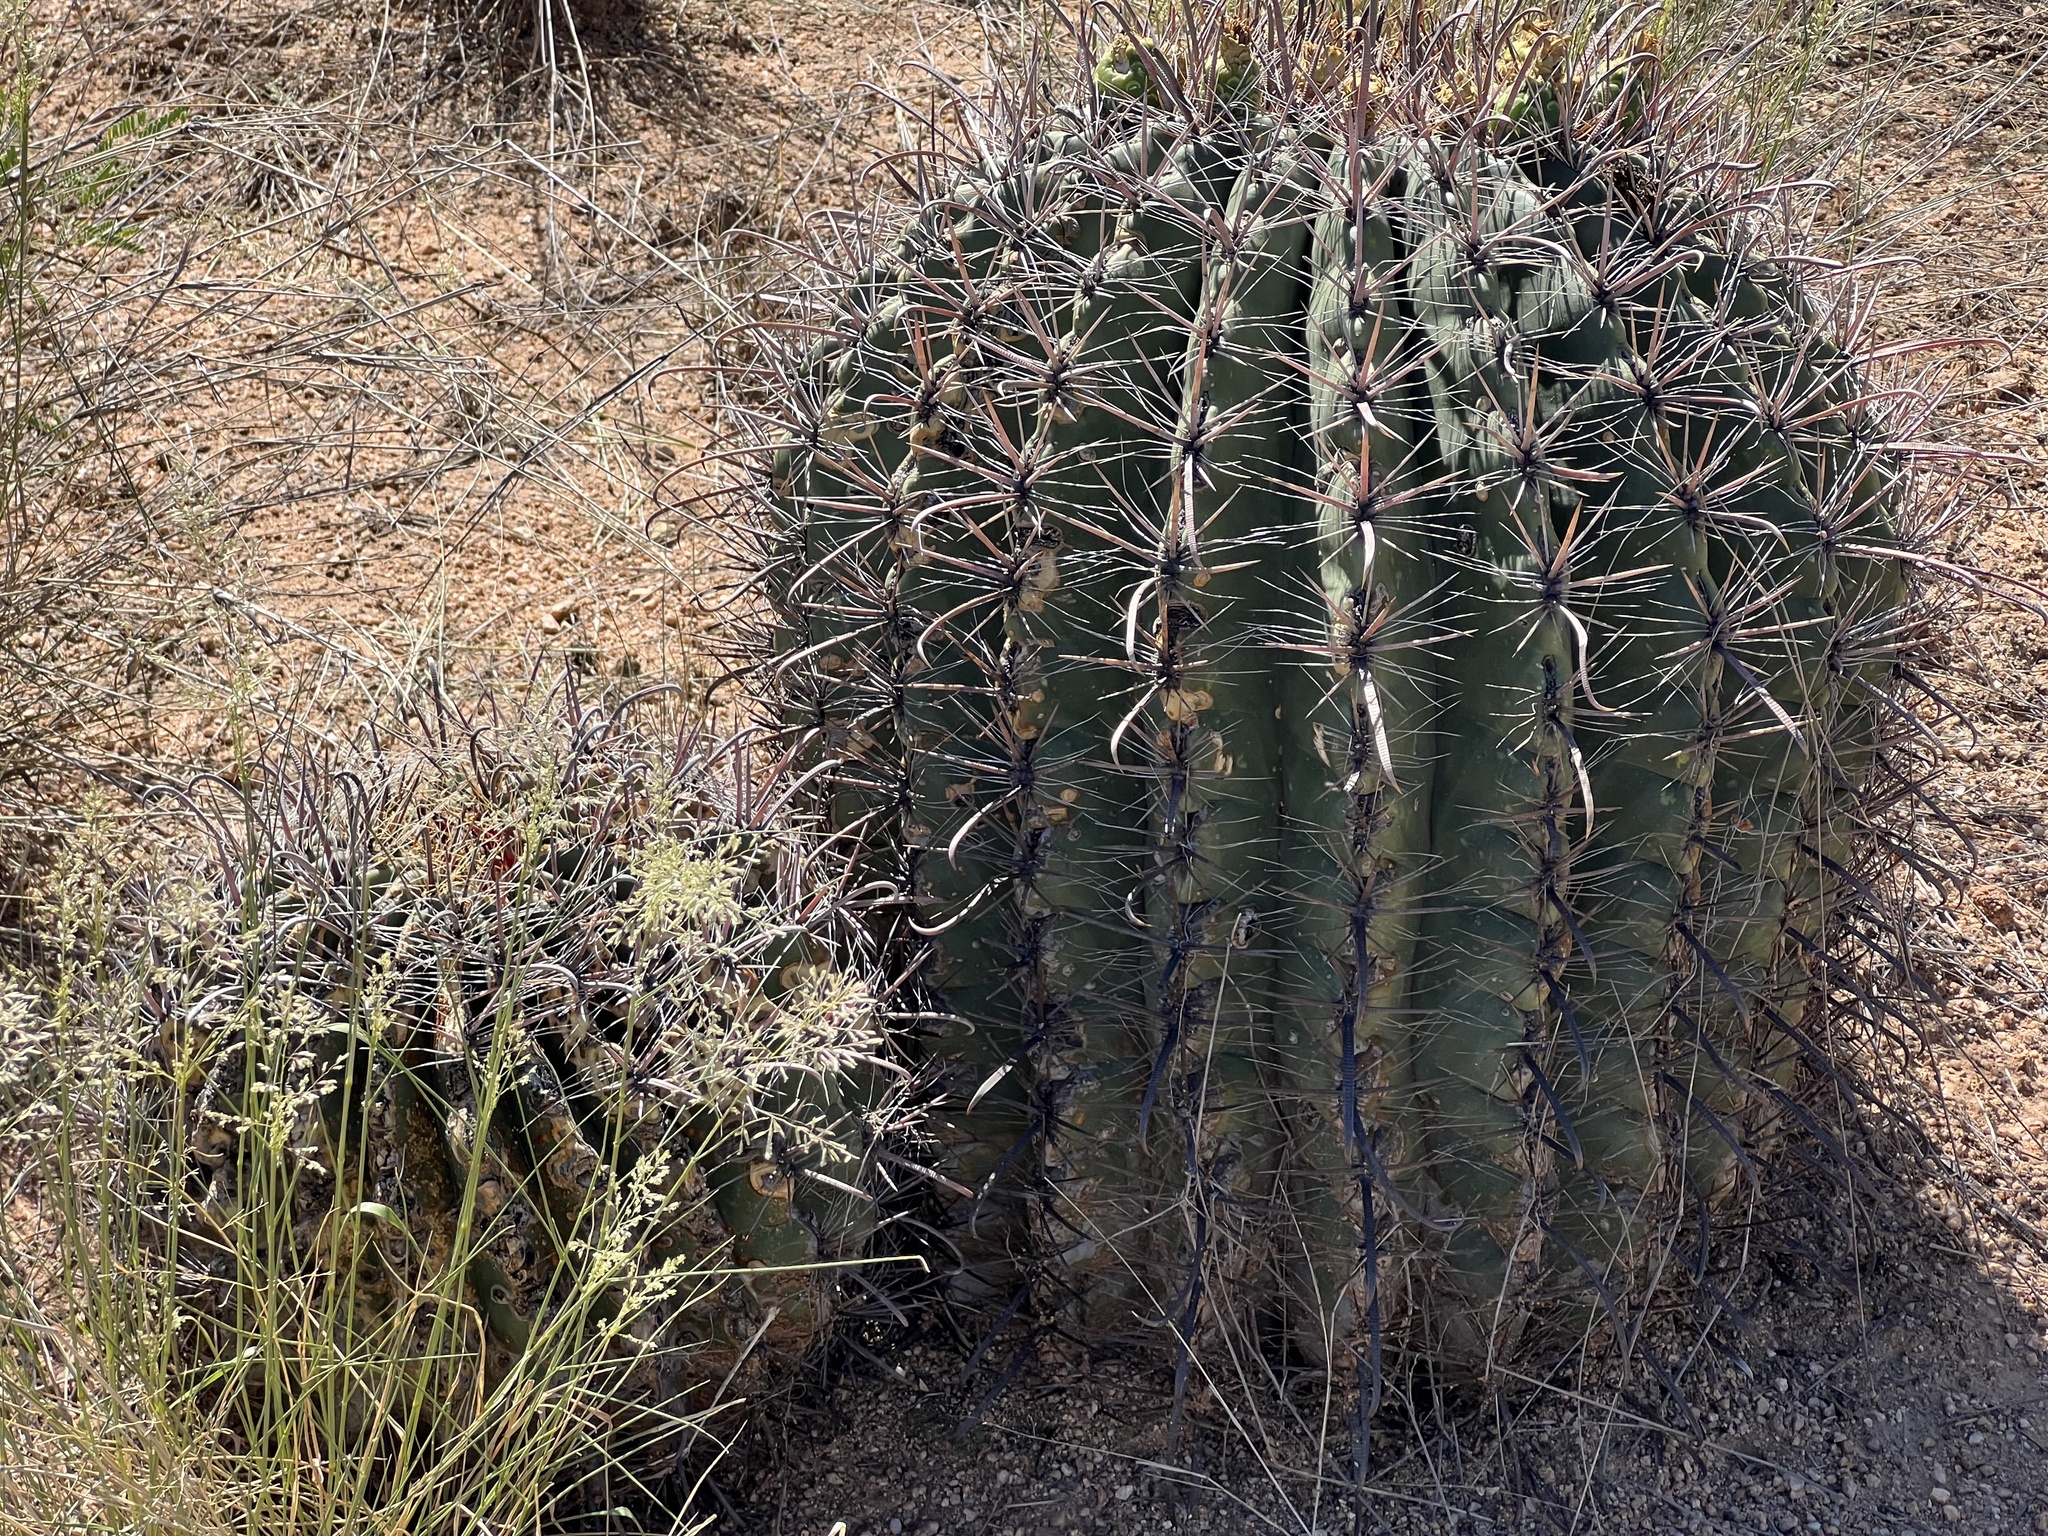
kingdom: Plantae
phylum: Tracheophyta
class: Magnoliopsida
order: Caryophyllales
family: Cactaceae
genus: Ferocactus
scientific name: Ferocactus wislizeni
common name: Candy barrel cactus
